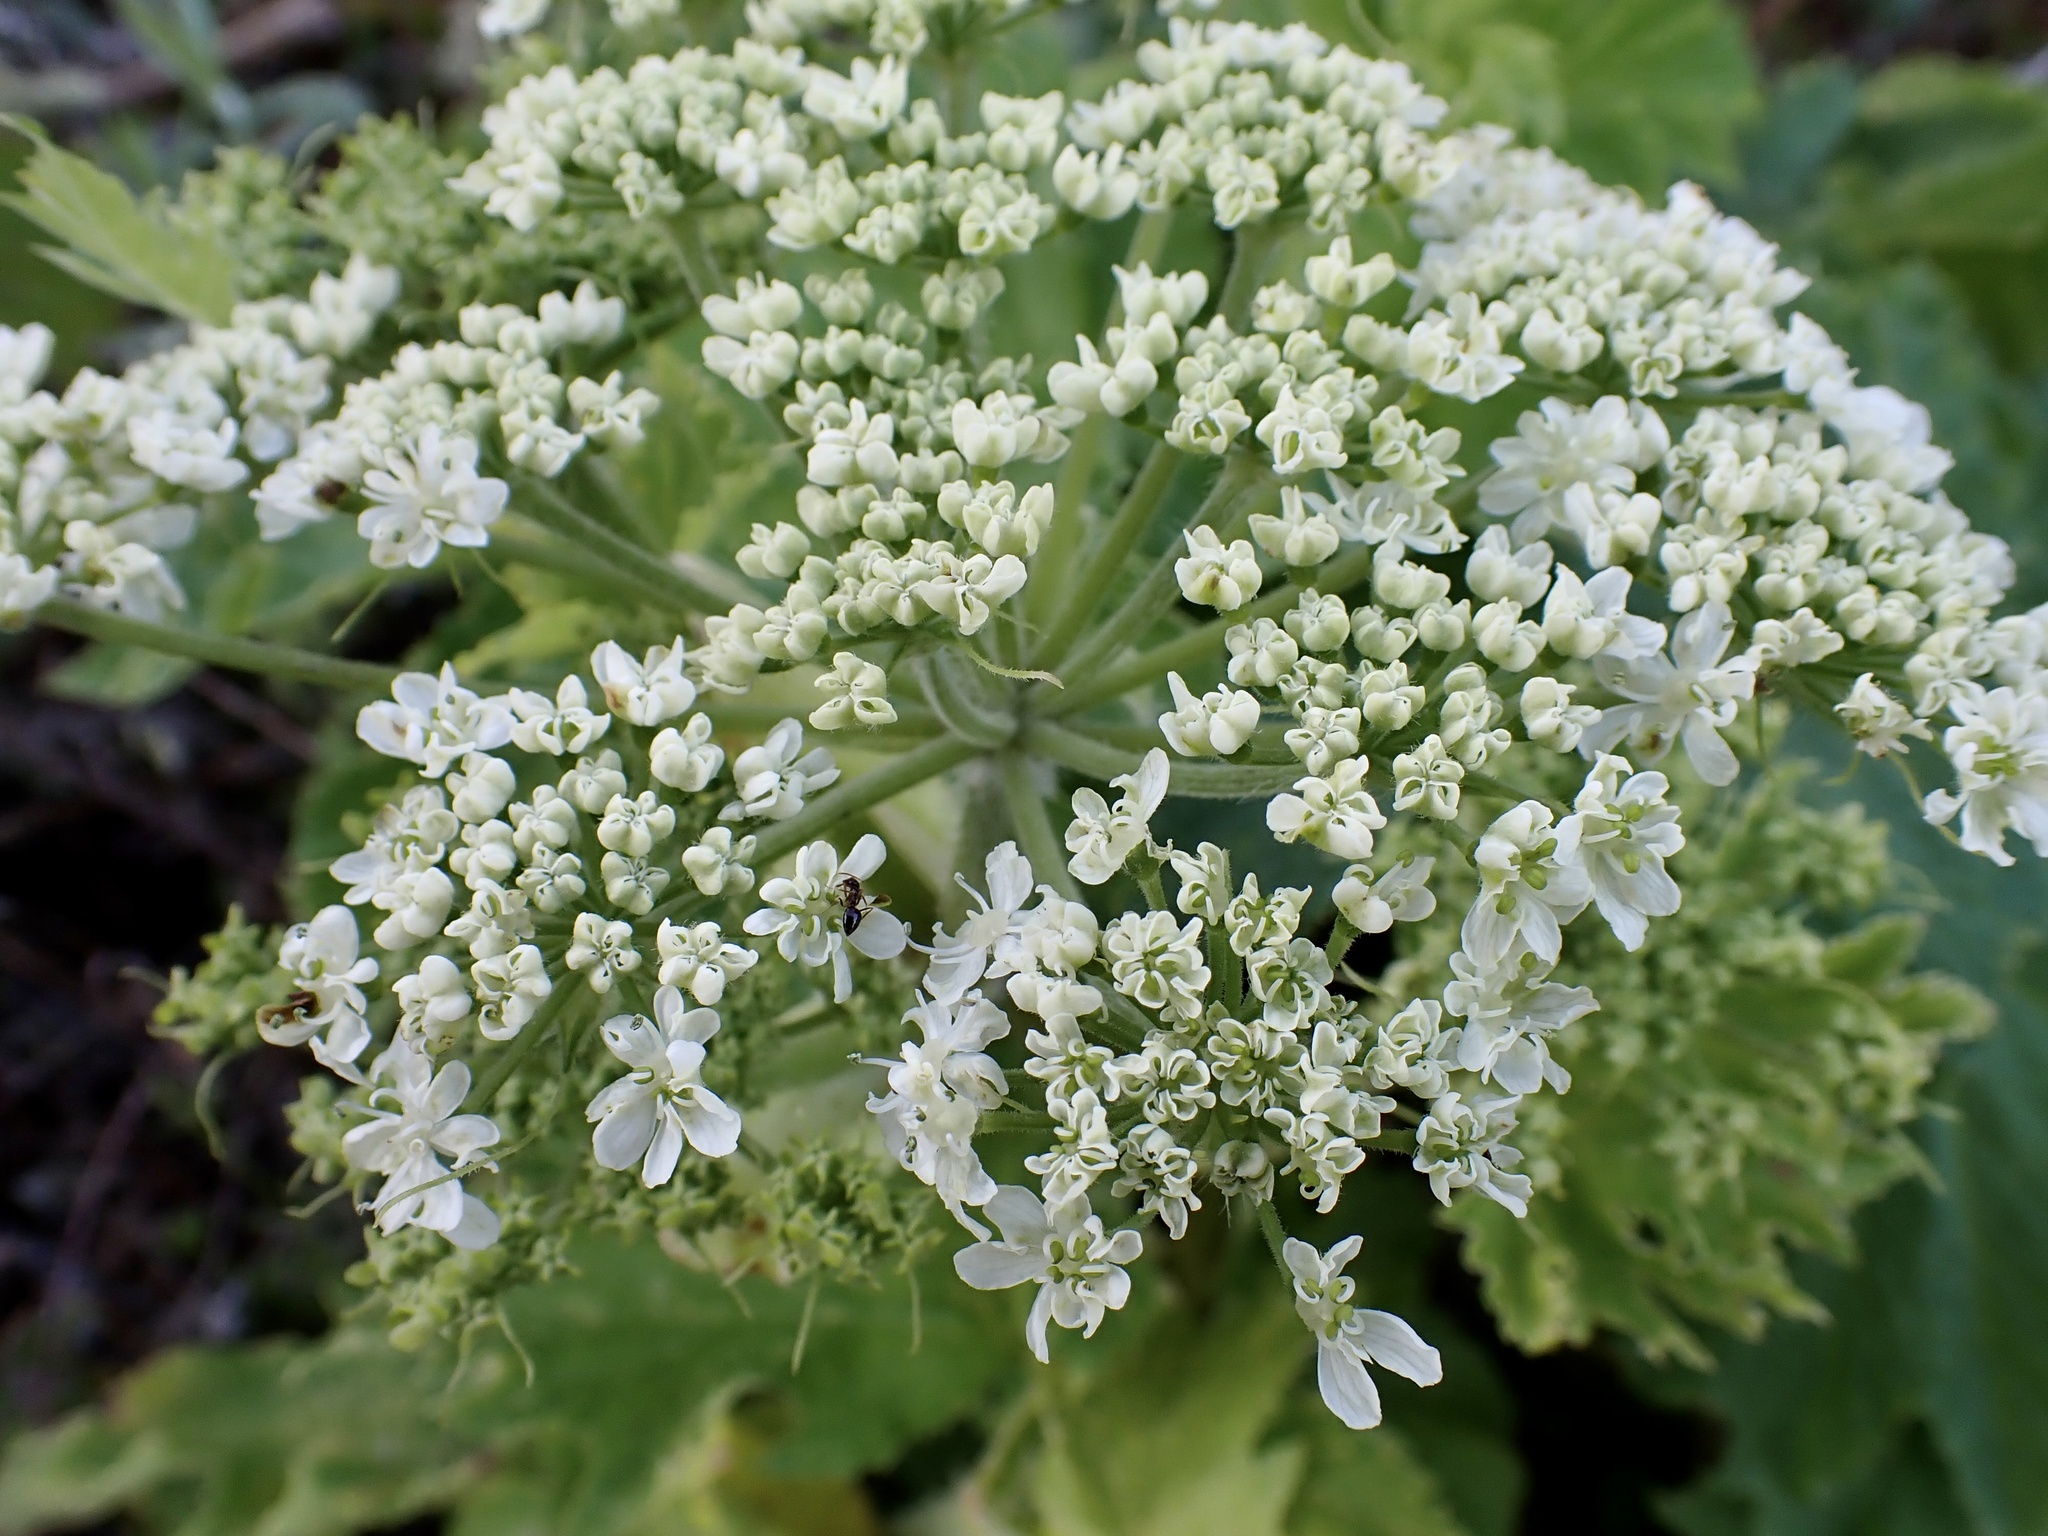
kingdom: Plantae
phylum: Tracheophyta
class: Magnoliopsida
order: Apiales
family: Apiaceae
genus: Heracleum
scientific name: Heracleum maximum
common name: American cow parsnip
